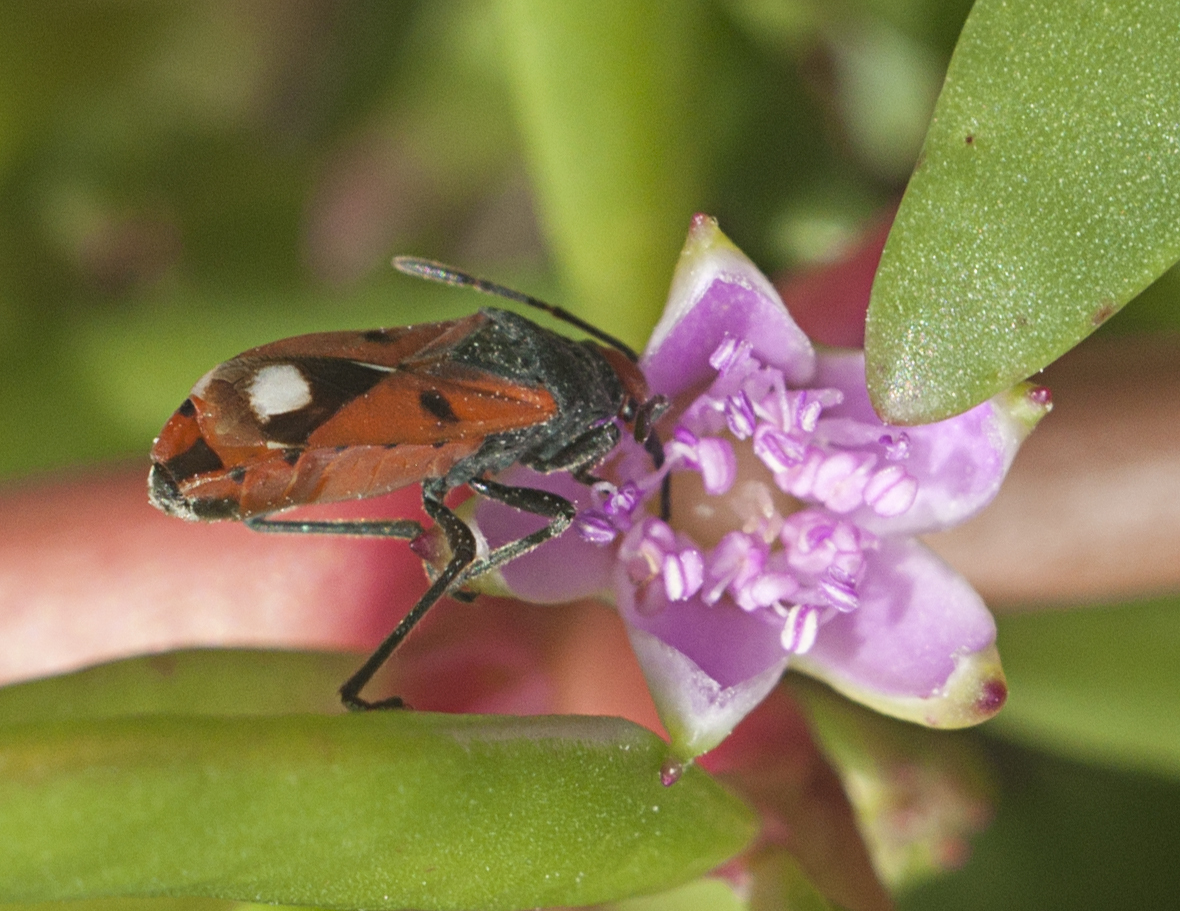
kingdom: Animalia
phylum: Arthropoda
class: Insecta
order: Hemiptera
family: Lygaeidae
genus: Melanerythrus
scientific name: Melanerythrus biguttatus
